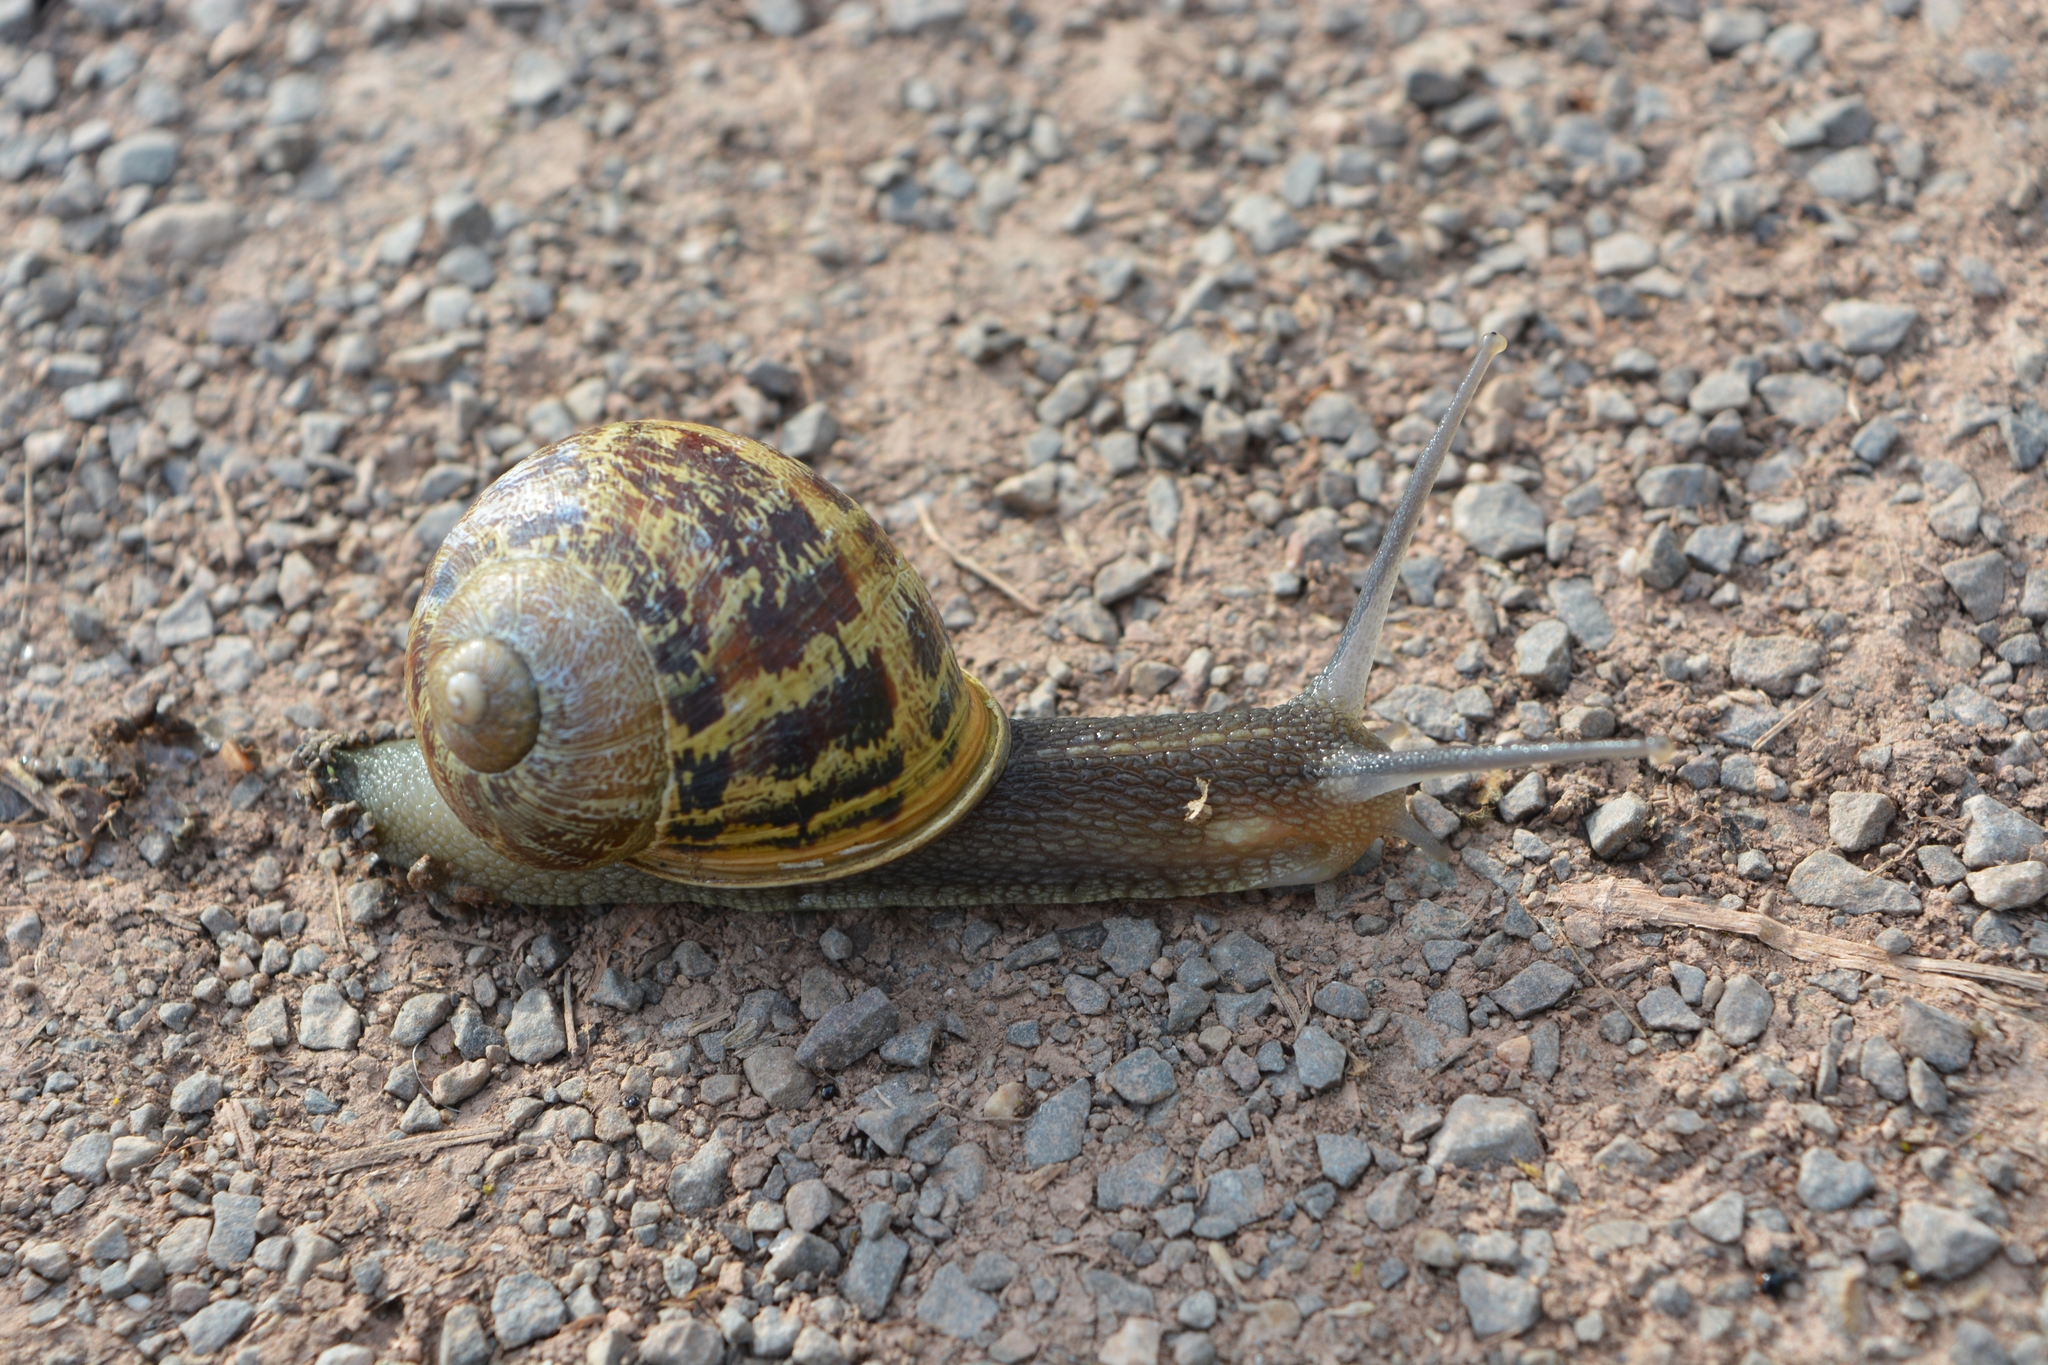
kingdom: Animalia
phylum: Mollusca
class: Gastropoda
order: Stylommatophora
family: Helicidae
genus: Cornu
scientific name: Cornu aspersum
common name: Brown garden snail
